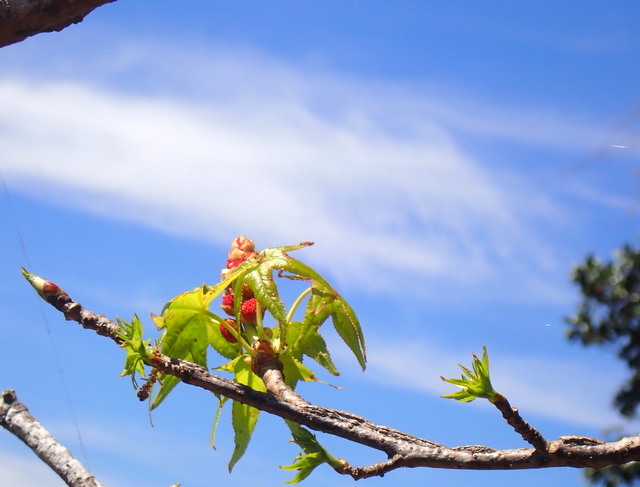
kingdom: Plantae
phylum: Tracheophyta
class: Magnoliopsida
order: Saxifragales
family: Altingiaceae
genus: Liquidambar
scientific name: Liquidambar styraciflua
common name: Sweet gum
